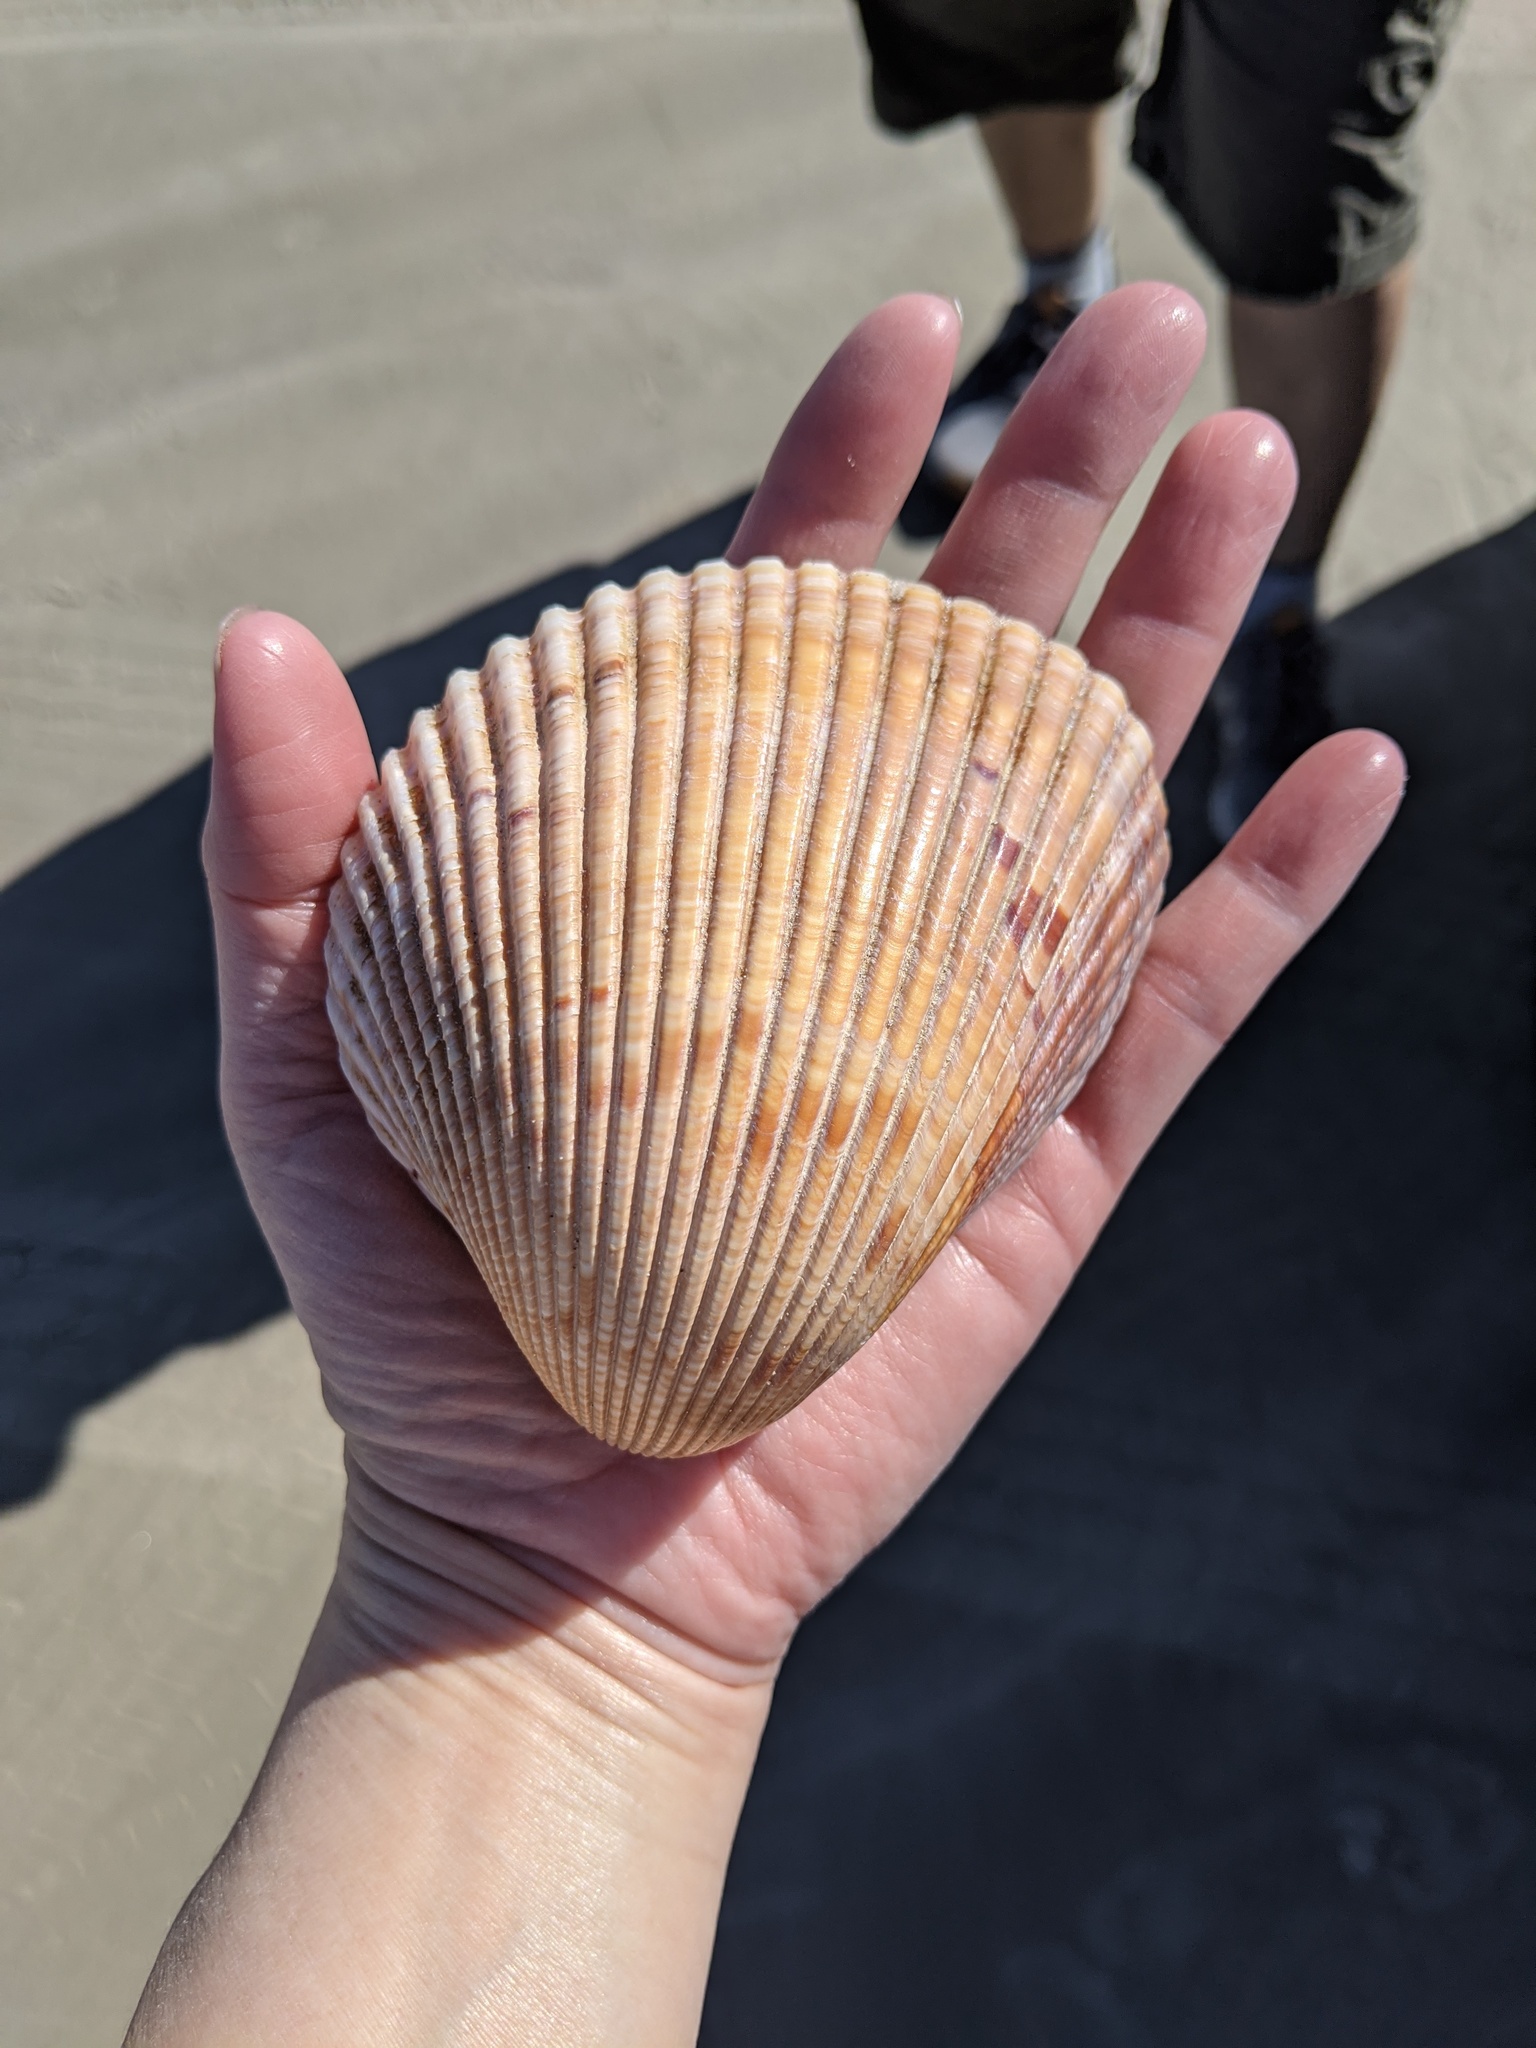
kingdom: Animalia
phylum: Mollusca
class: Bivalvia
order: Cardiida
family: Cardiidae
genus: Dinocardium
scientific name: Dinocardium robustum
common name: Atlantic giant cockle
